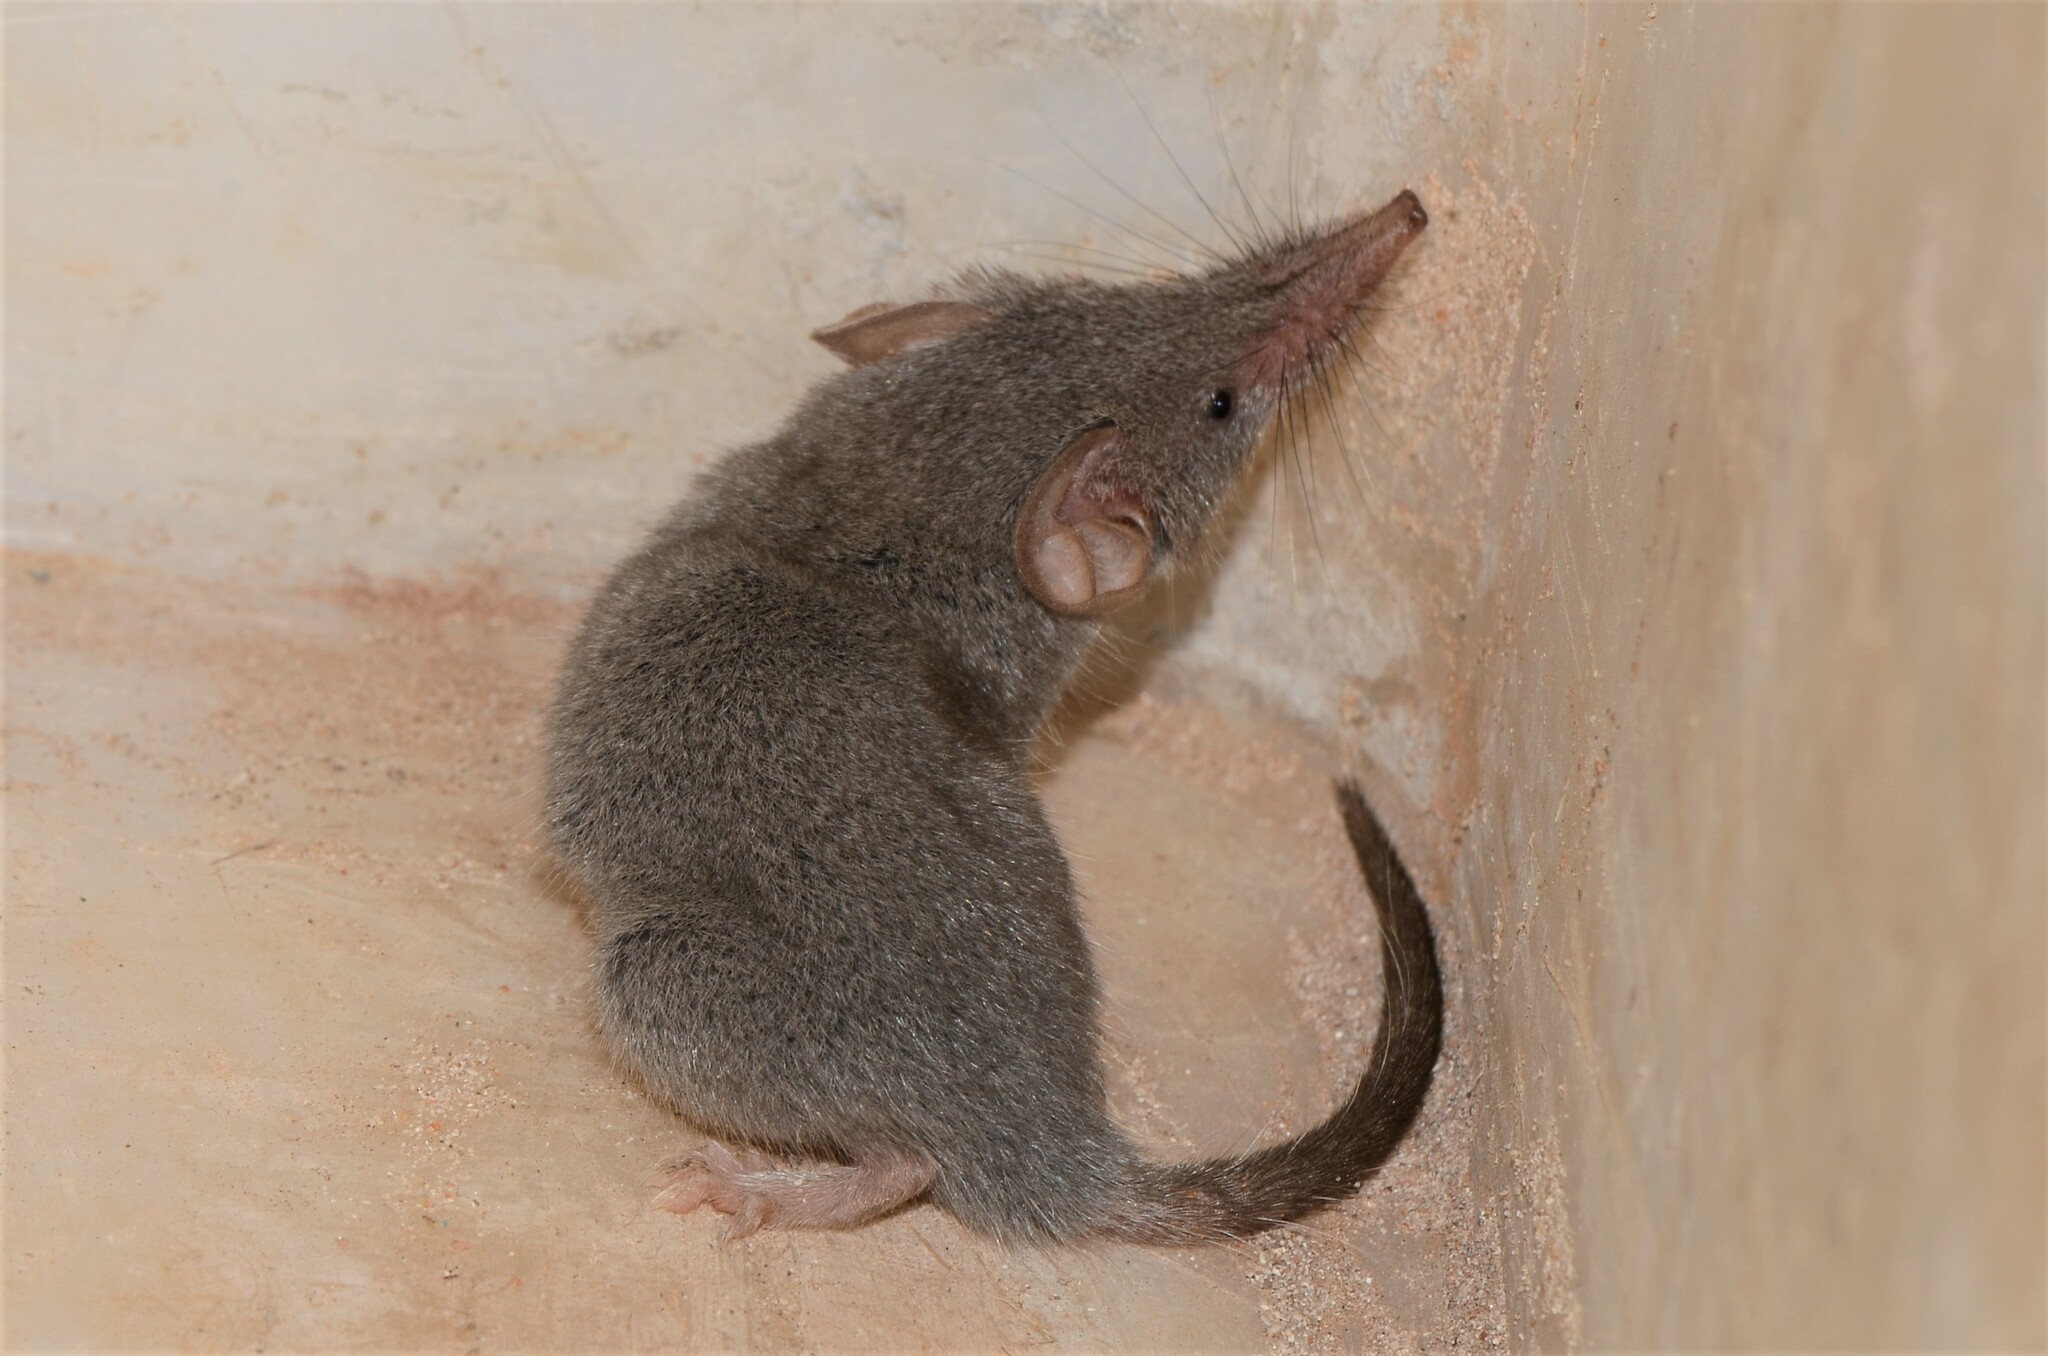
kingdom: Animalia
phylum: Chordata
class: Mammalia
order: Soricomorpha
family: Soricidae
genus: Crocidura
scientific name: Crocidura cyanea
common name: Reddish-gray musk shrew
